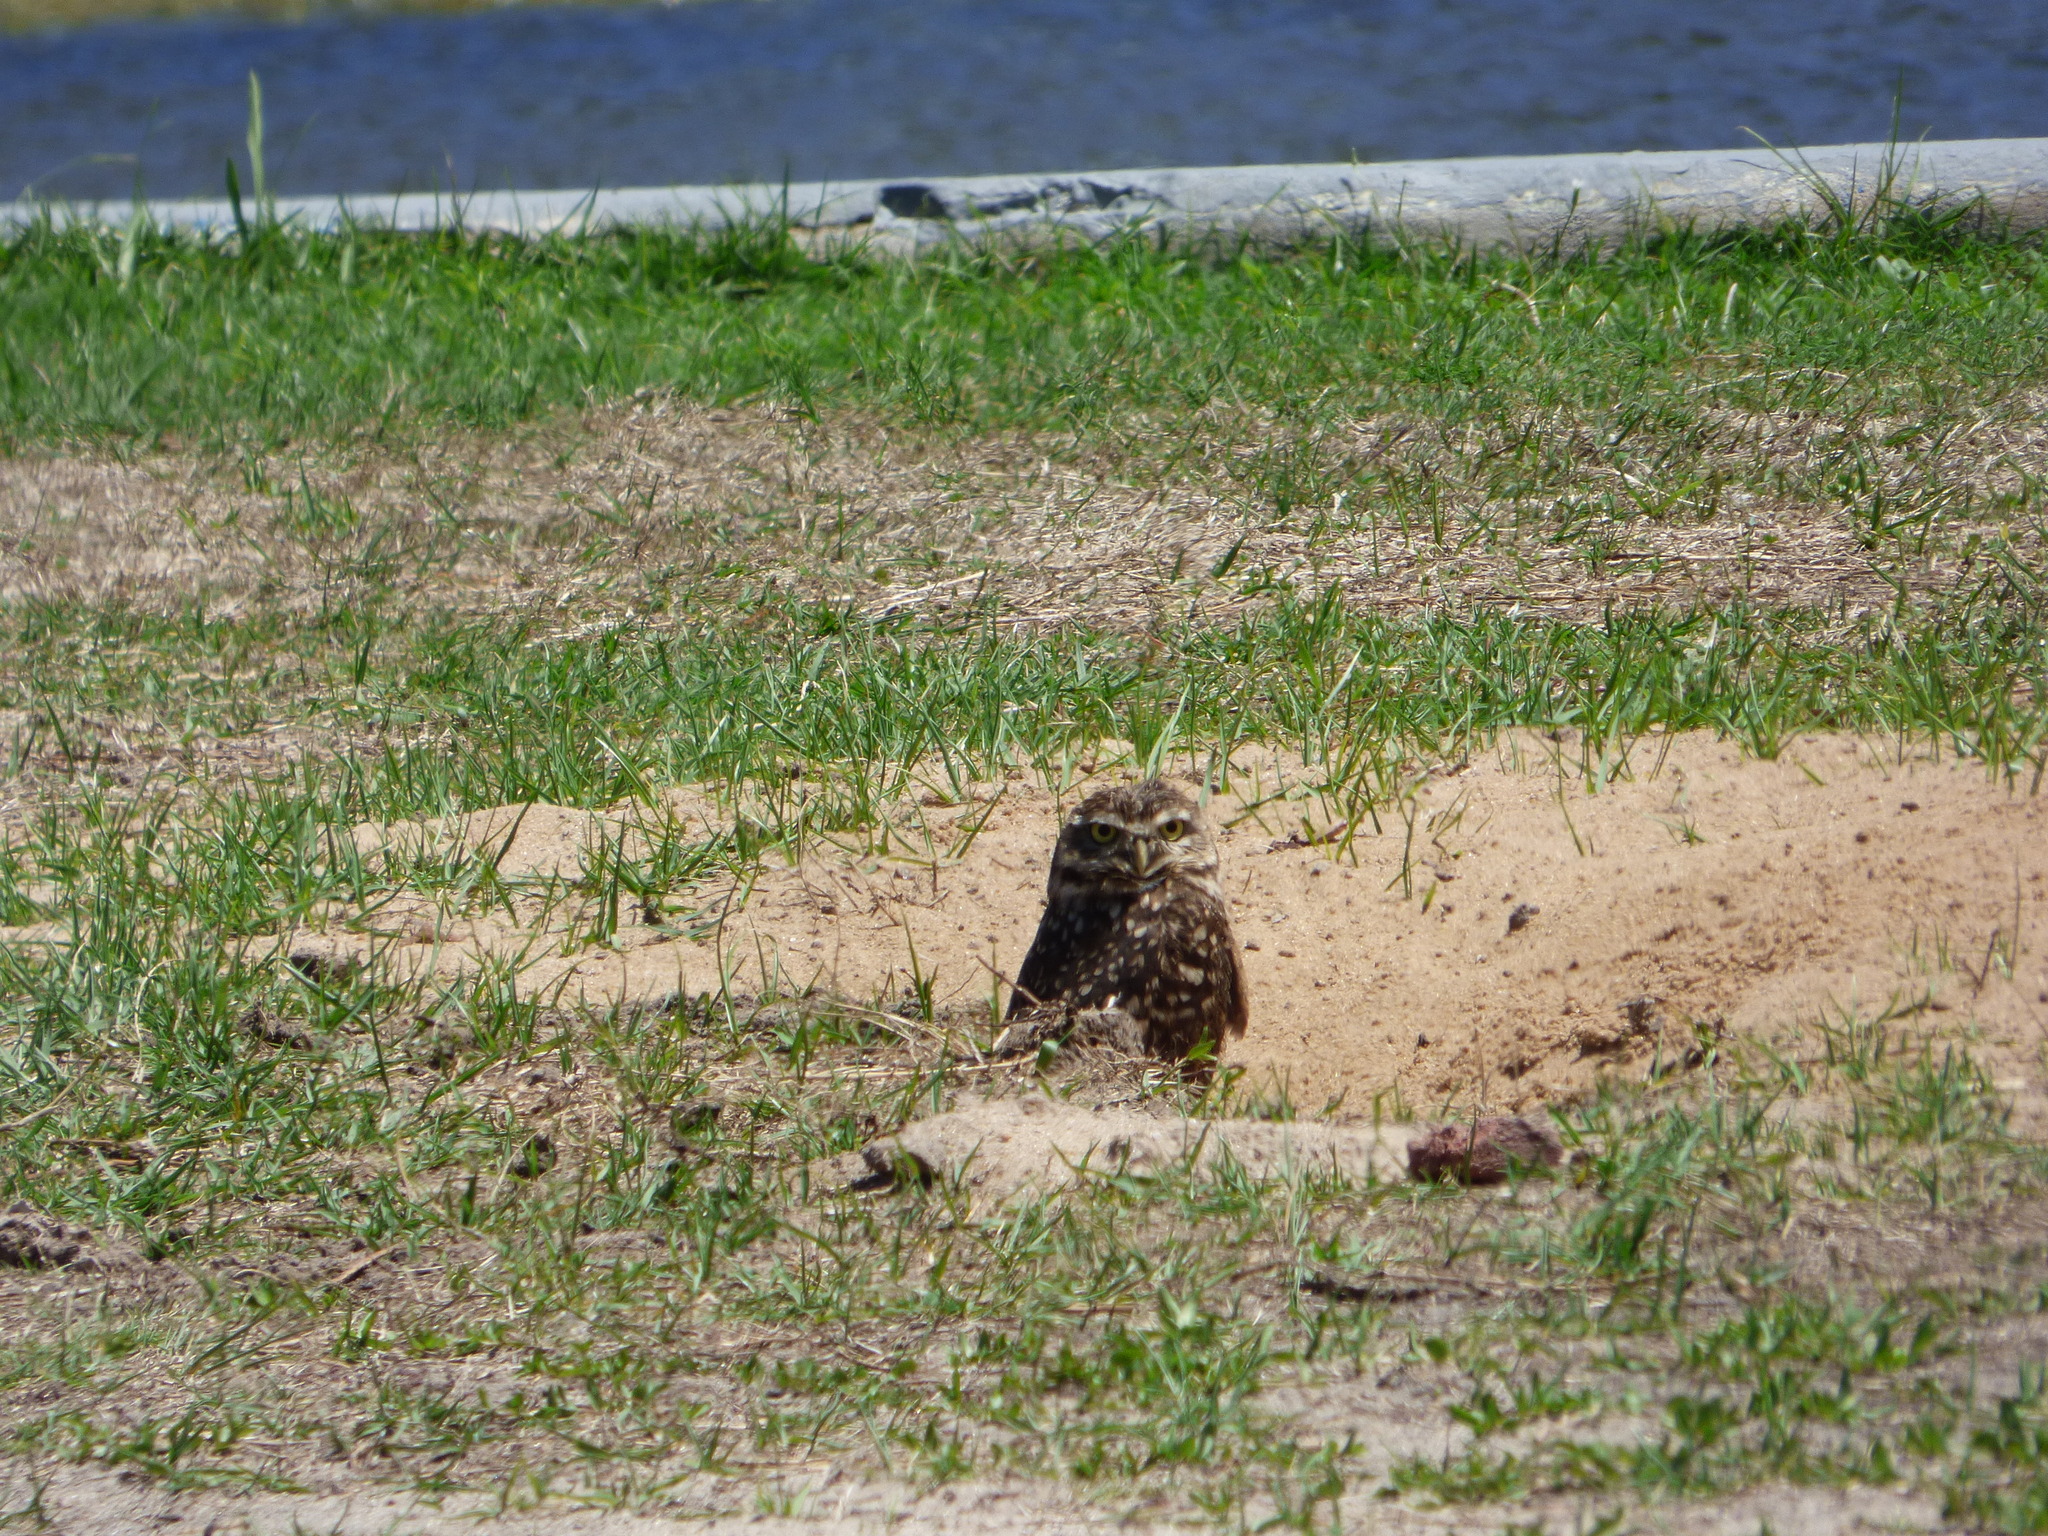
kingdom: Animalia
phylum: Chordata
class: Aves
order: Strigiformes
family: Strigidae
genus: Athene
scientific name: Athene cunicularia
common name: Burrowing owl
